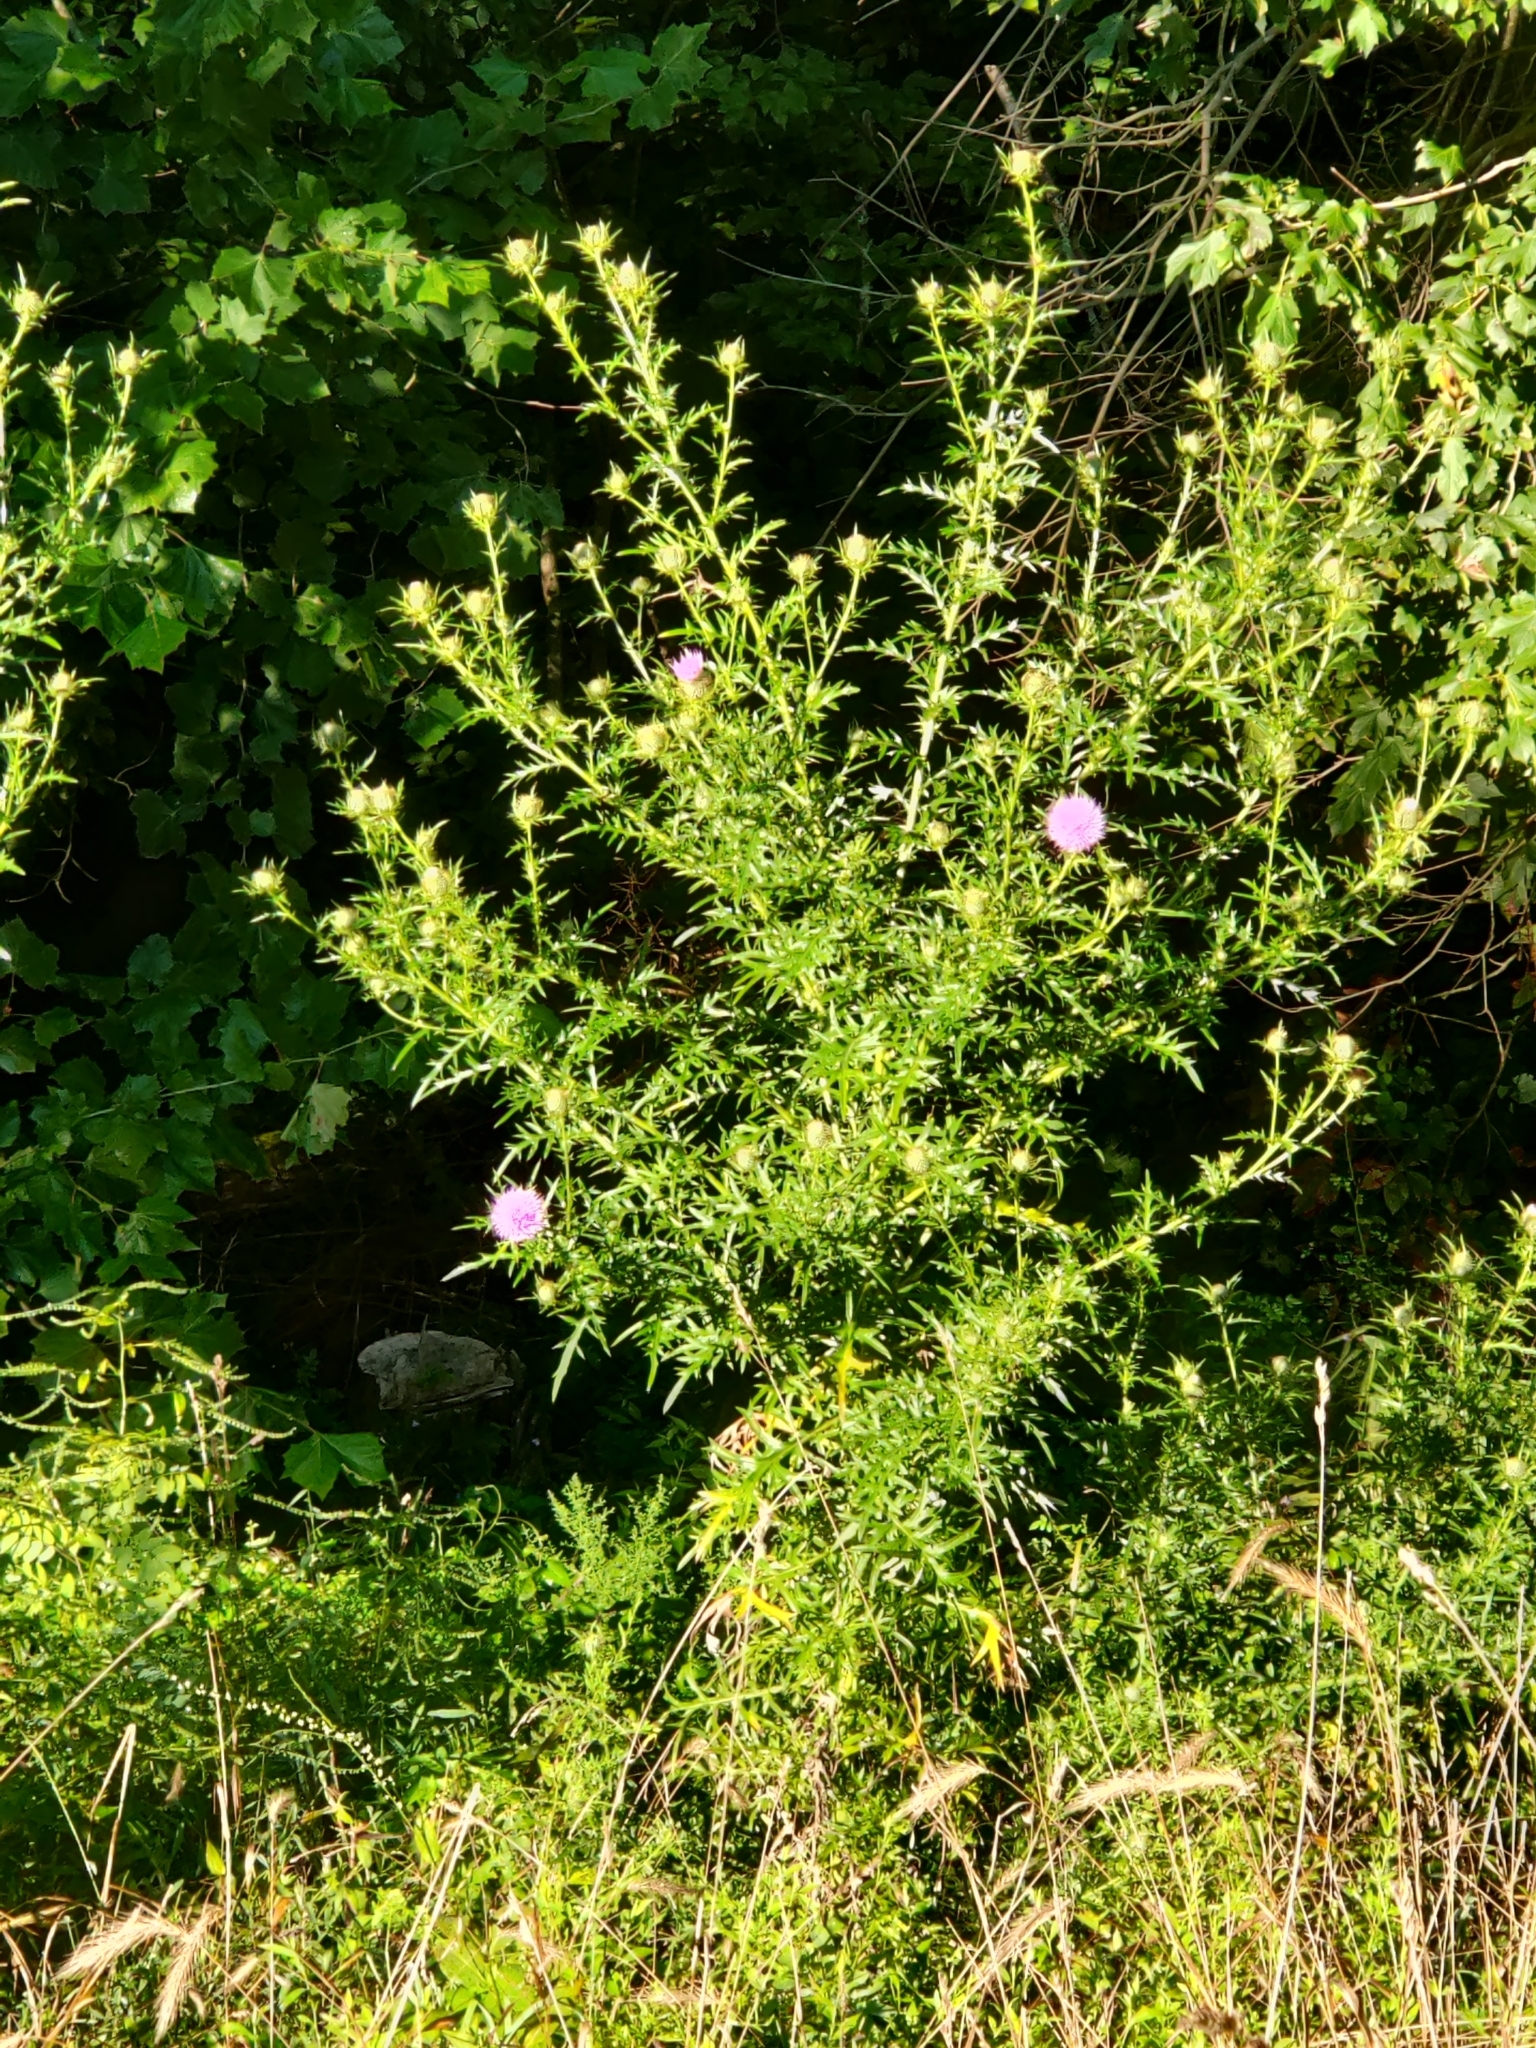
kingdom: Plantae
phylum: Tracheophyta
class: Magnoliopsida
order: Asterales
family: Asteraceae
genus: Cirsium
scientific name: Cirsium discolor
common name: Field thistle
